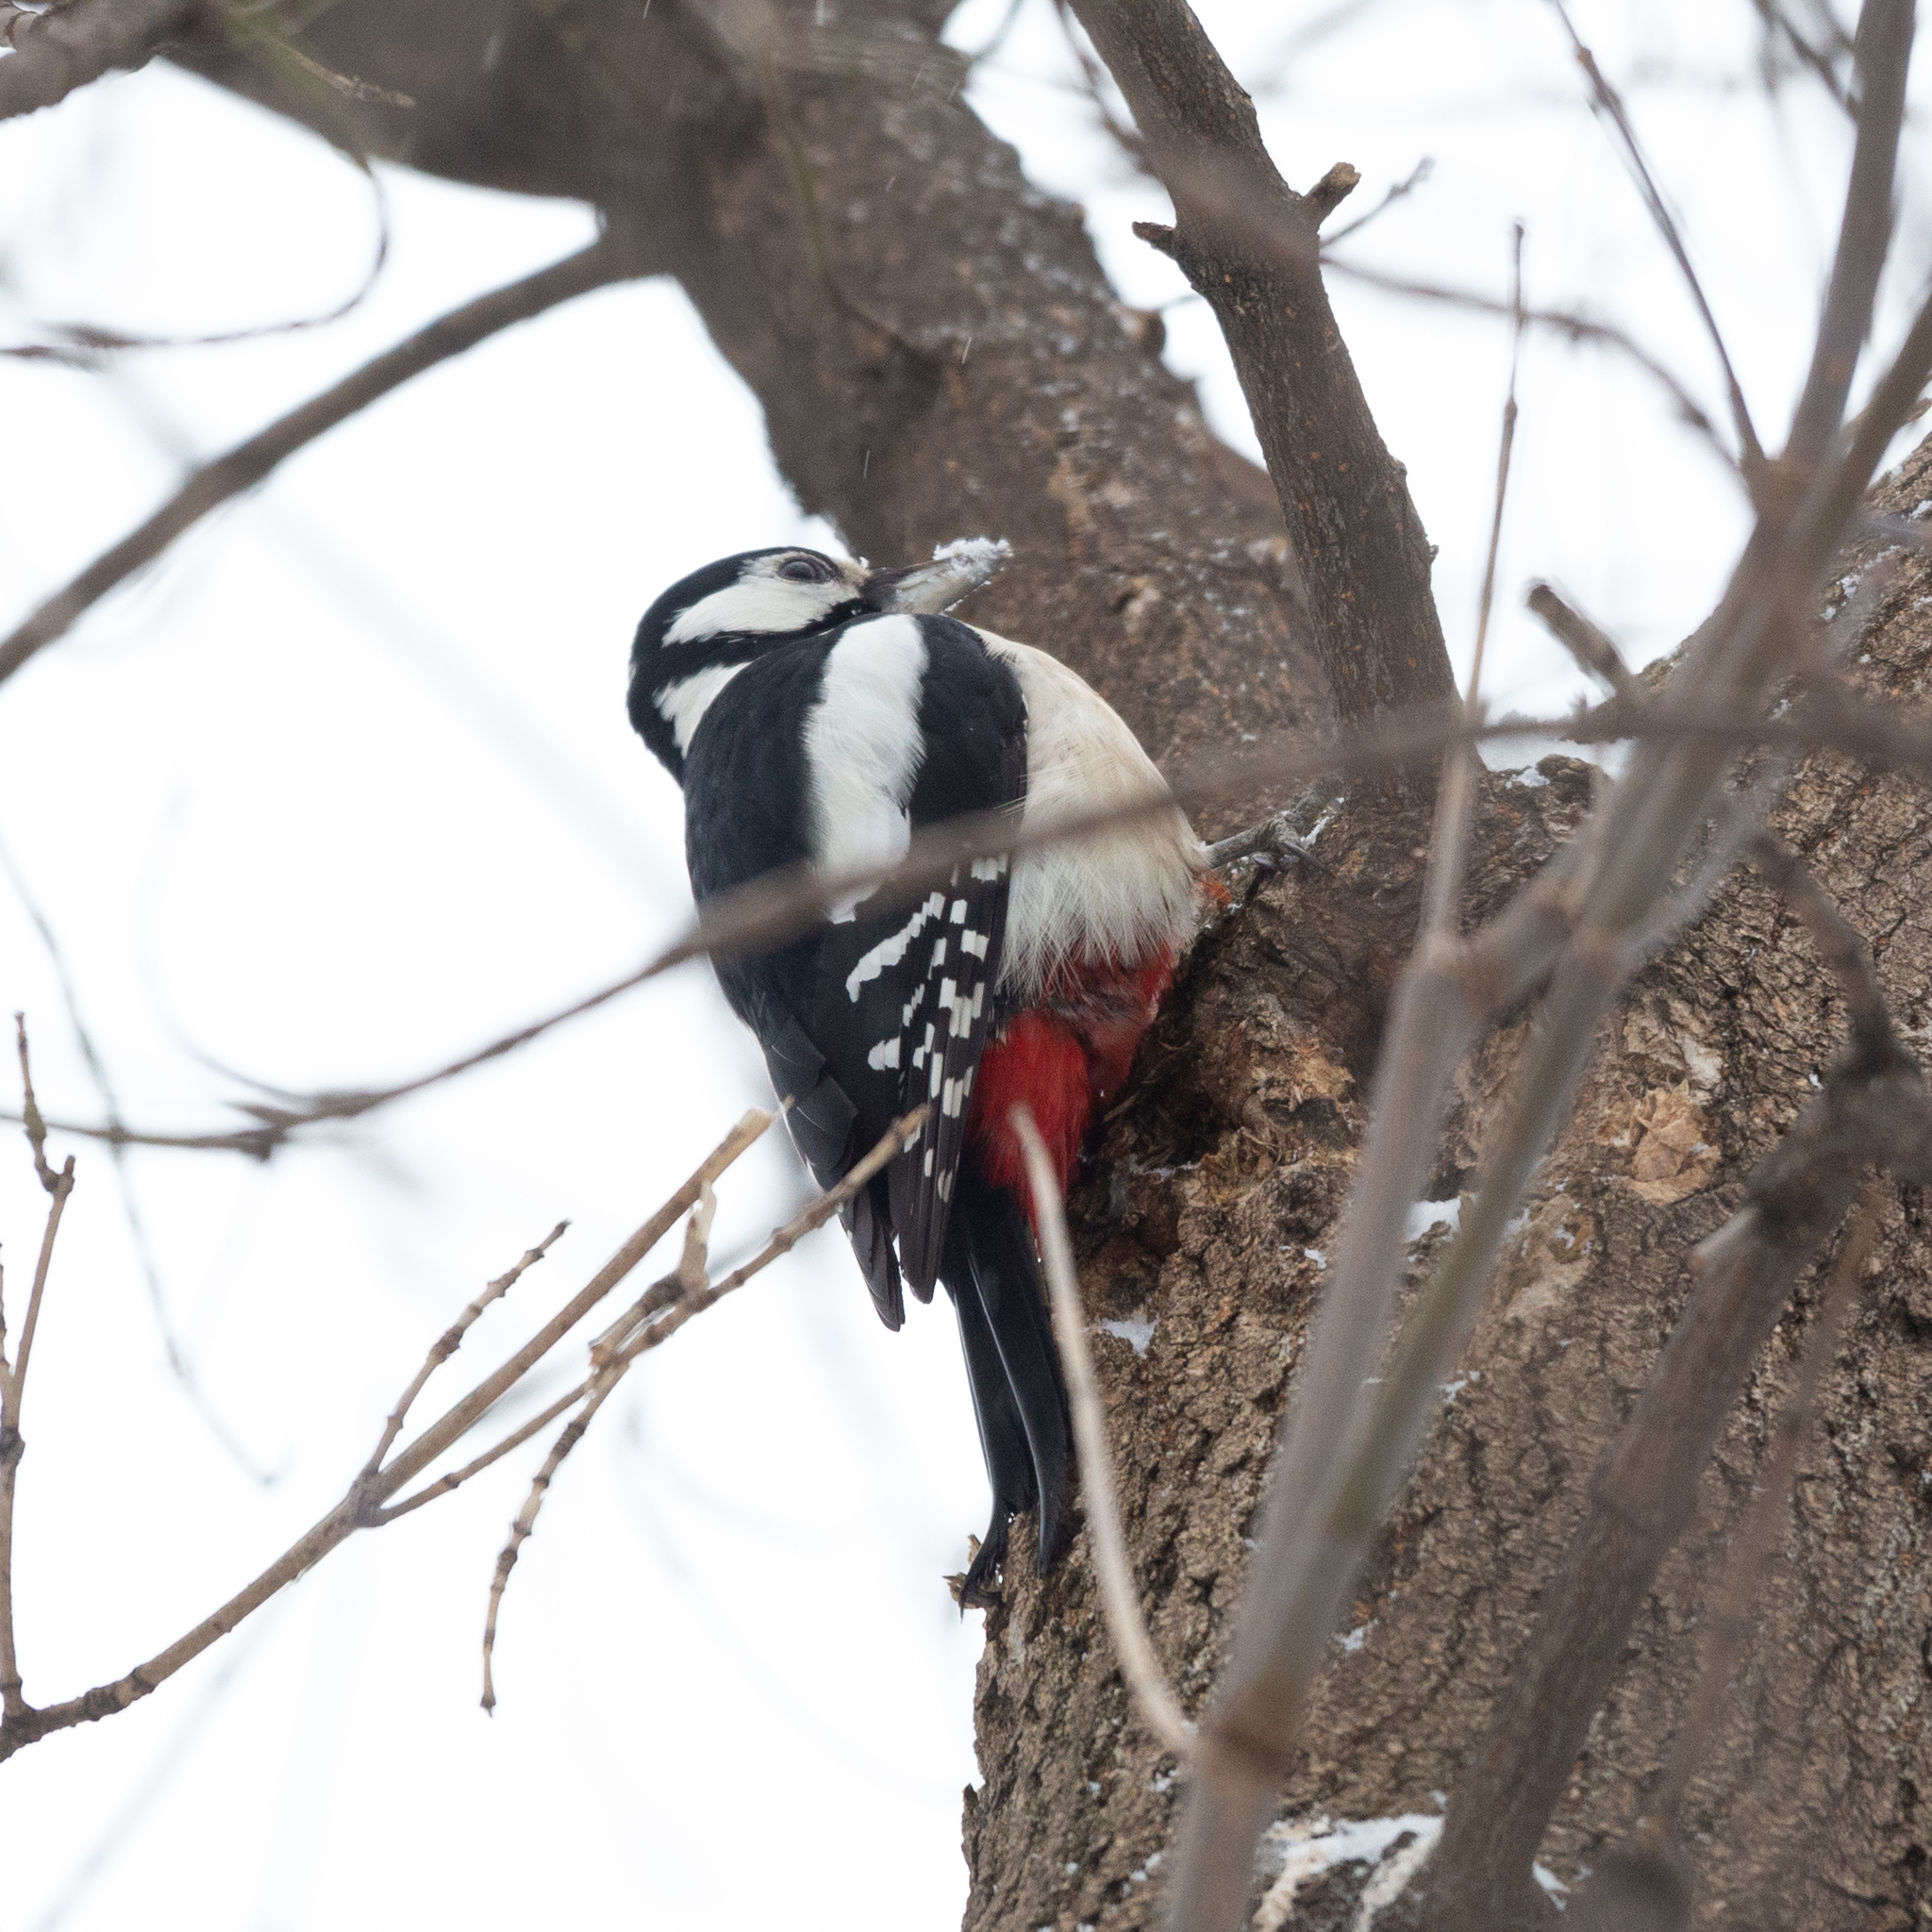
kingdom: Animalia
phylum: Chordata
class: Aves
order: Piciformes
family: Picidae
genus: Dendrocopos
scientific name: Dendrocopos major
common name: Great spotted woodpecker
